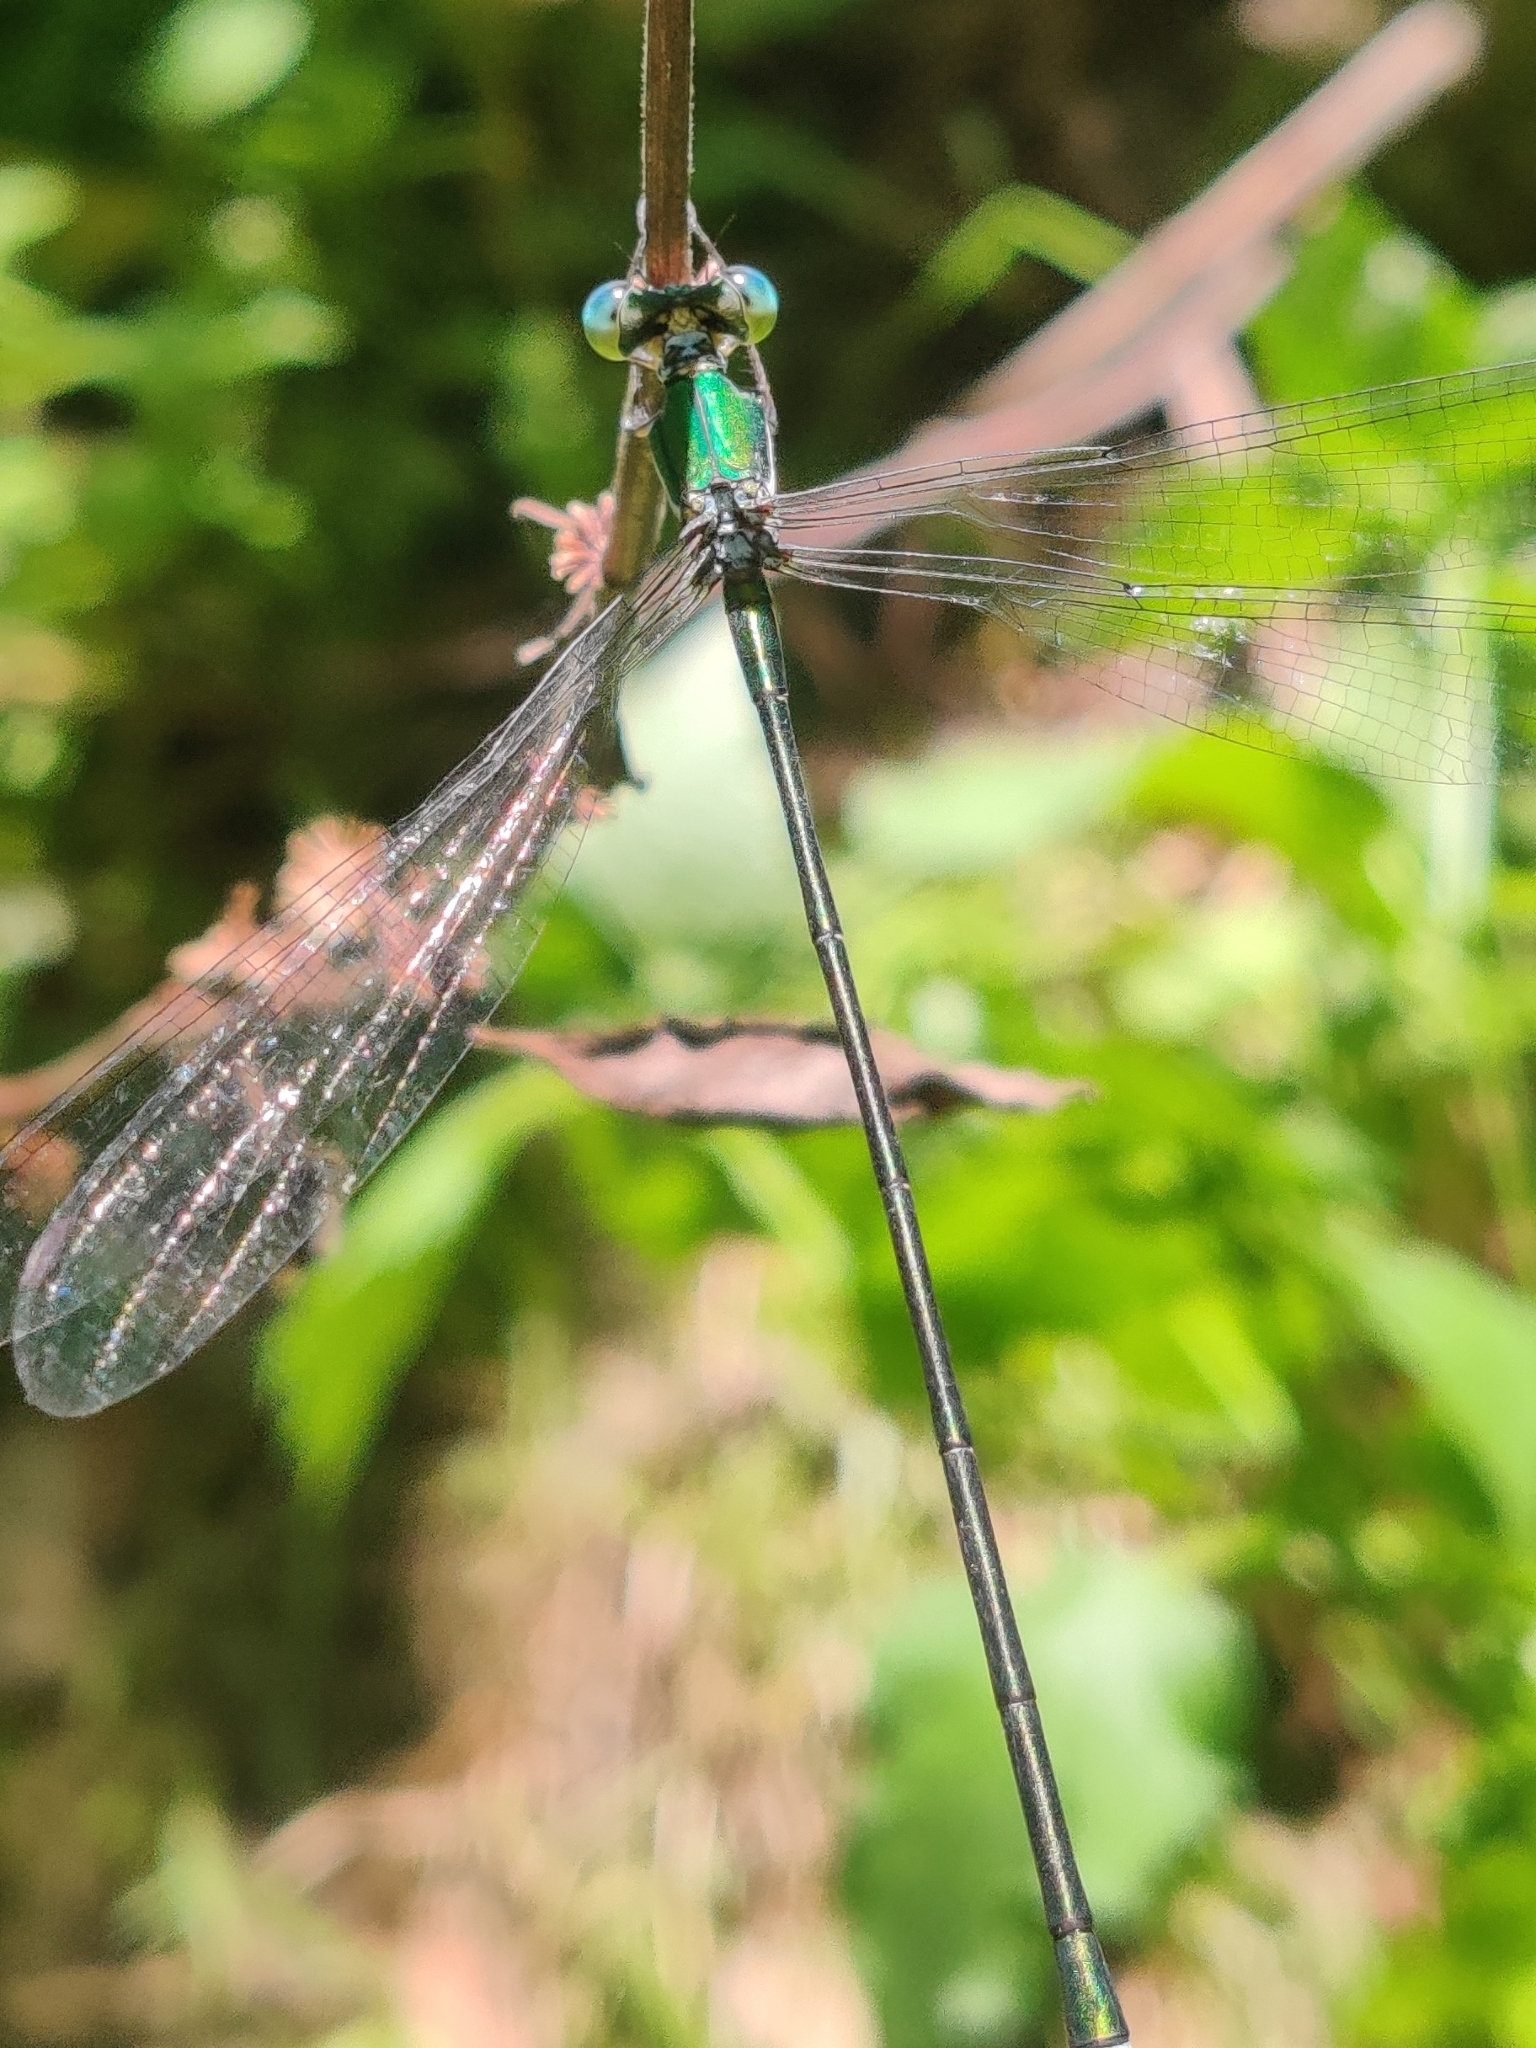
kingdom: Animalia
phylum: Arthropoda
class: Insecta
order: Odonata
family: Synlestidae
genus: Megalestes
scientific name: Megalestes major
